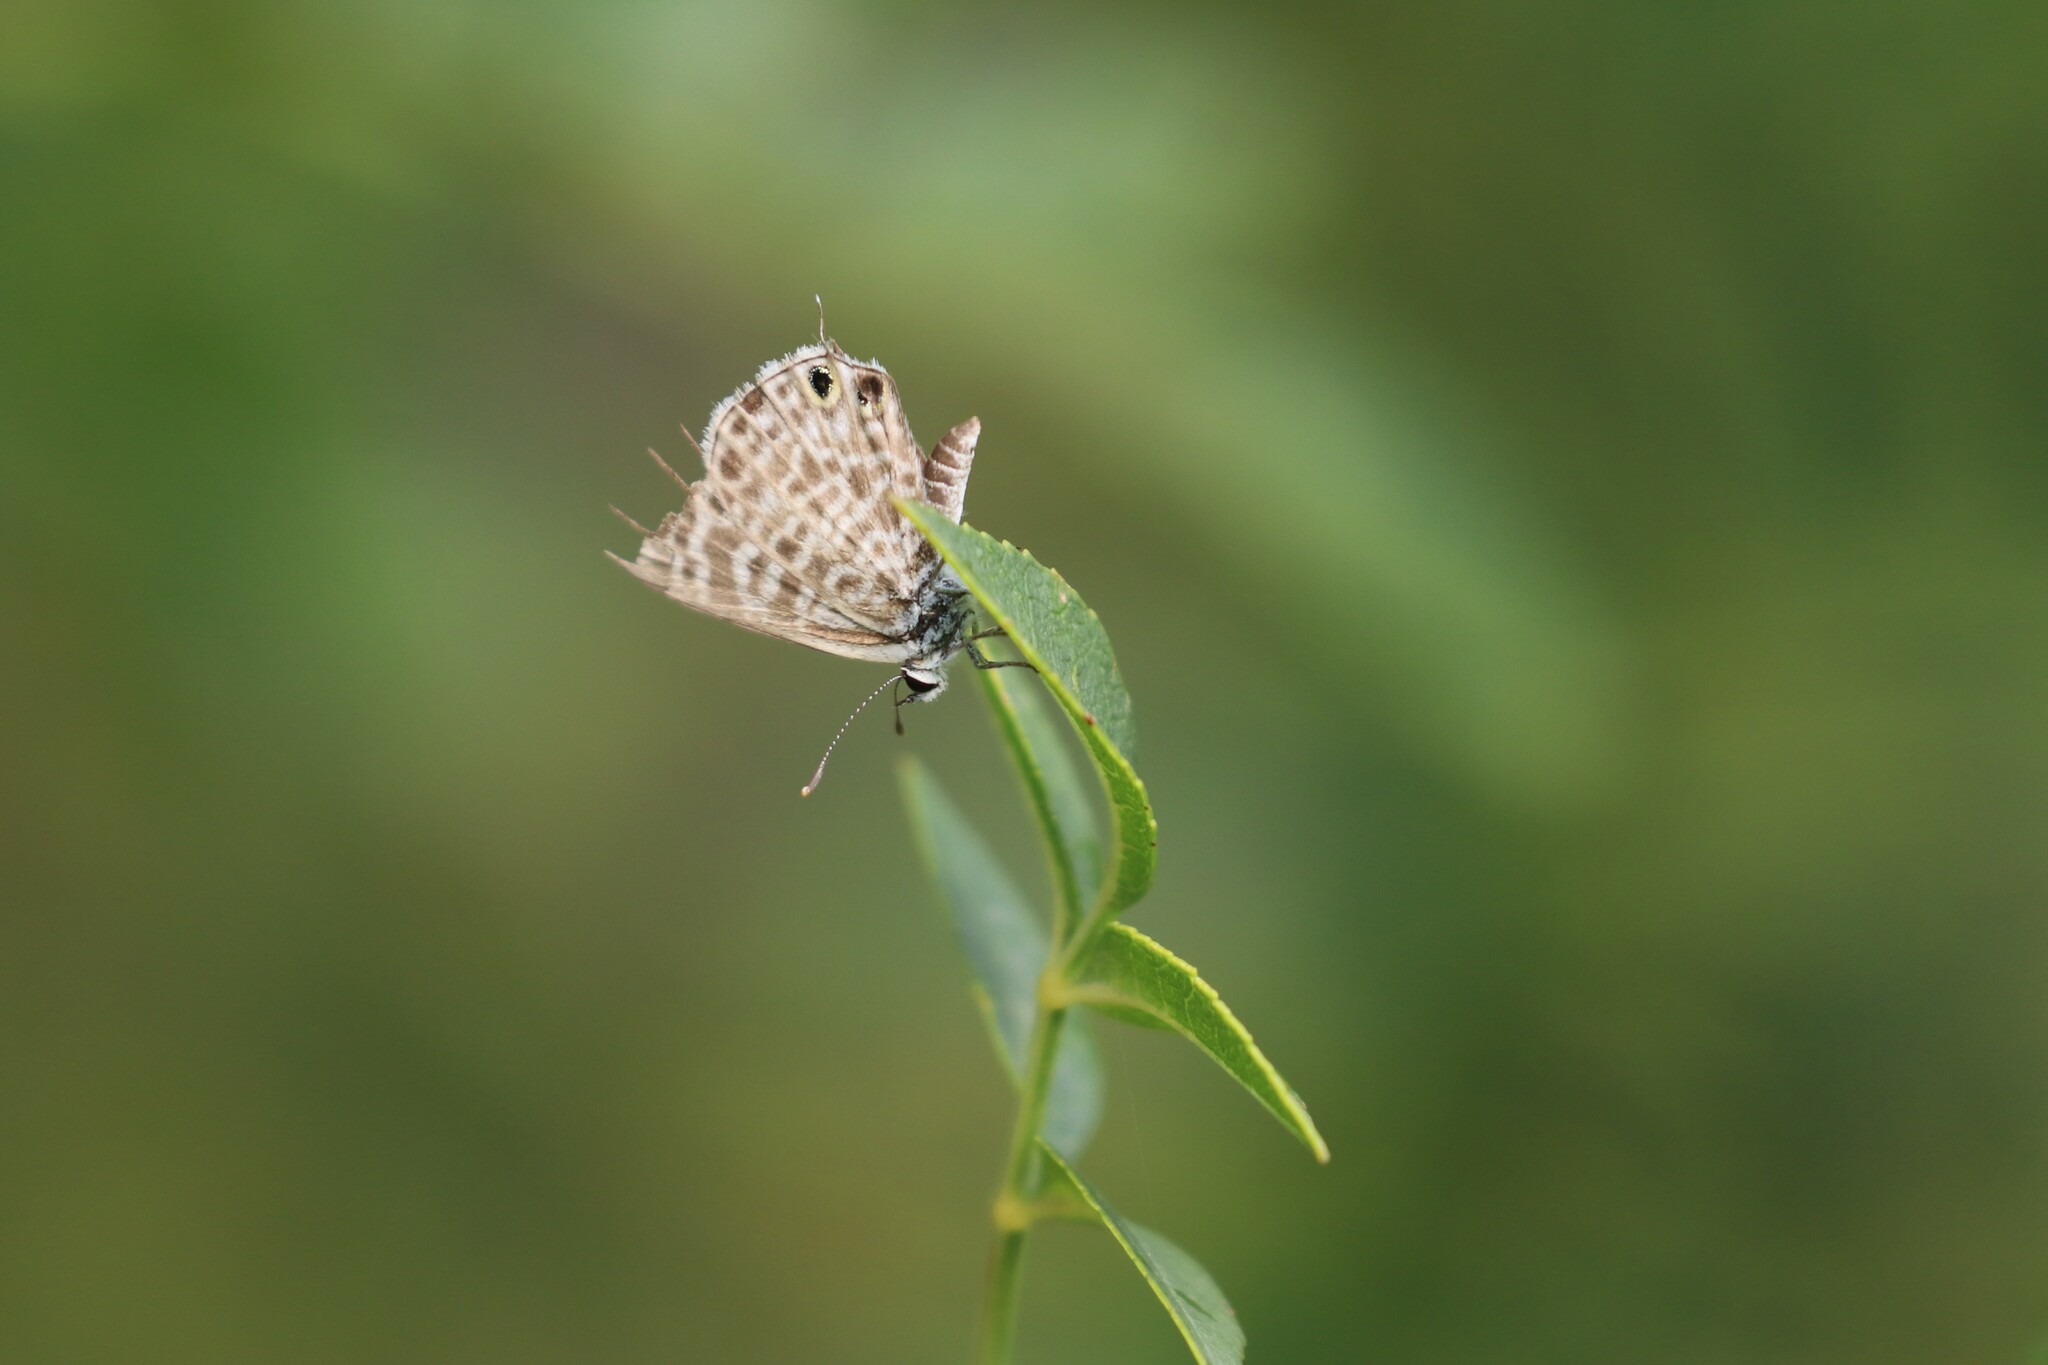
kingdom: Animalia
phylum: Arthropoda
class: Insecta
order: Lepidoptera
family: Lycaenidae
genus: Leptotes
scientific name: Leptotes pirithous
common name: Lang's short-tailed blue
